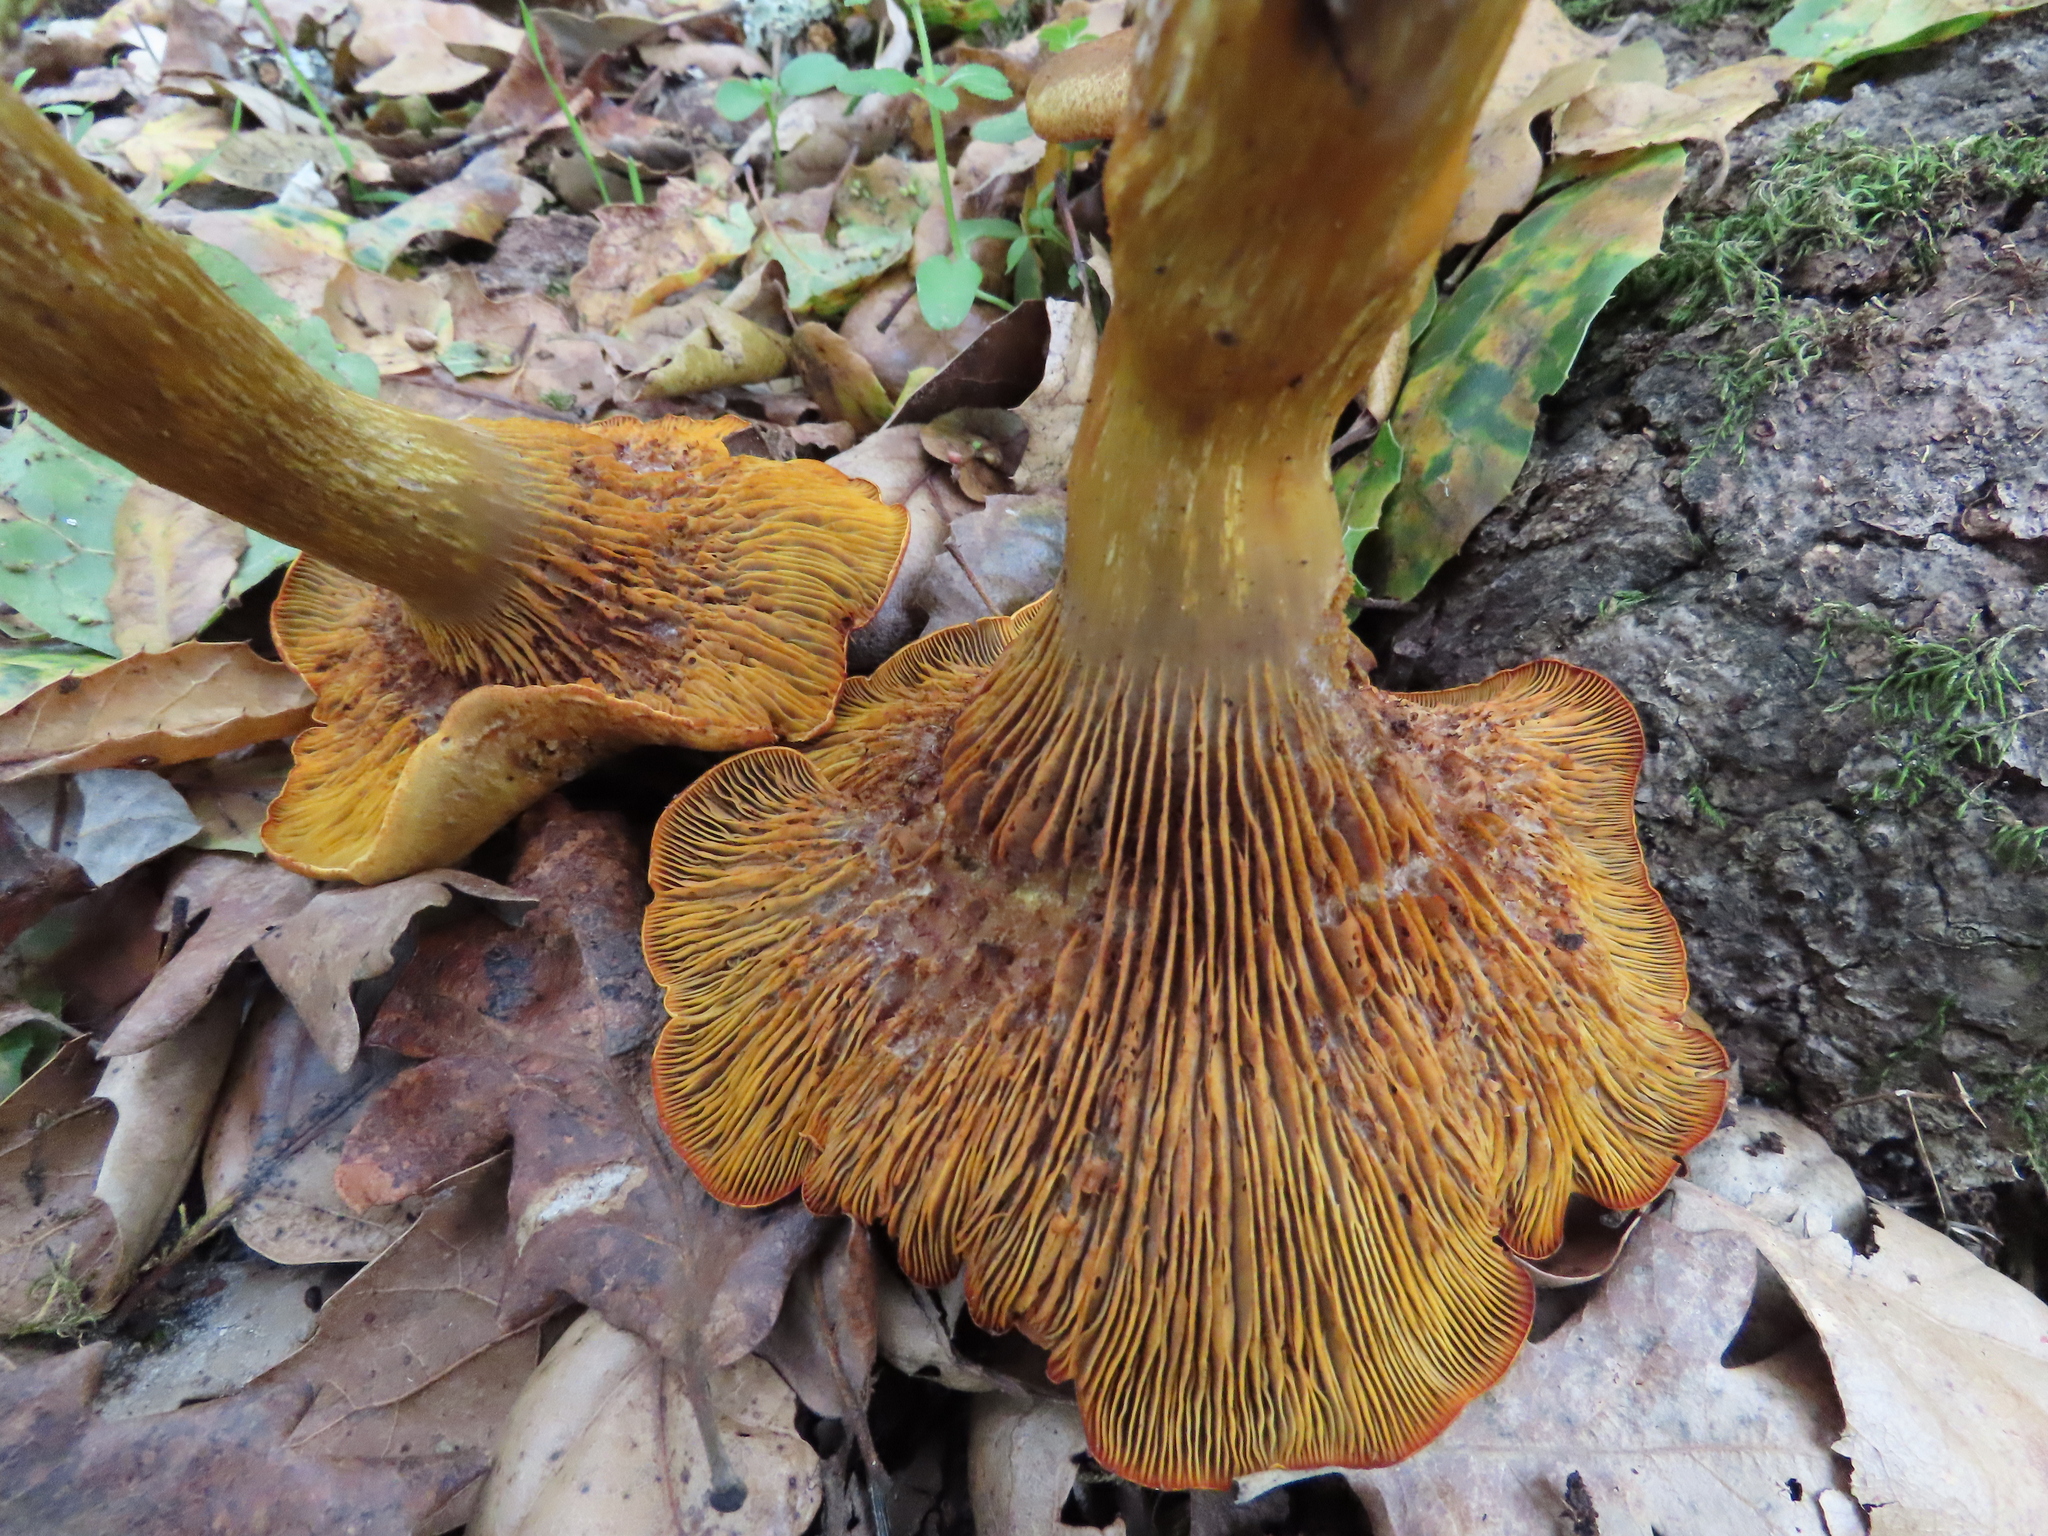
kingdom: Fungi
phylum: Basidiomycota
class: Agaricomycetes
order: Agaricales
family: Omphalotaceae
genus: Omphalotus
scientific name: Omphalotus olivascens
